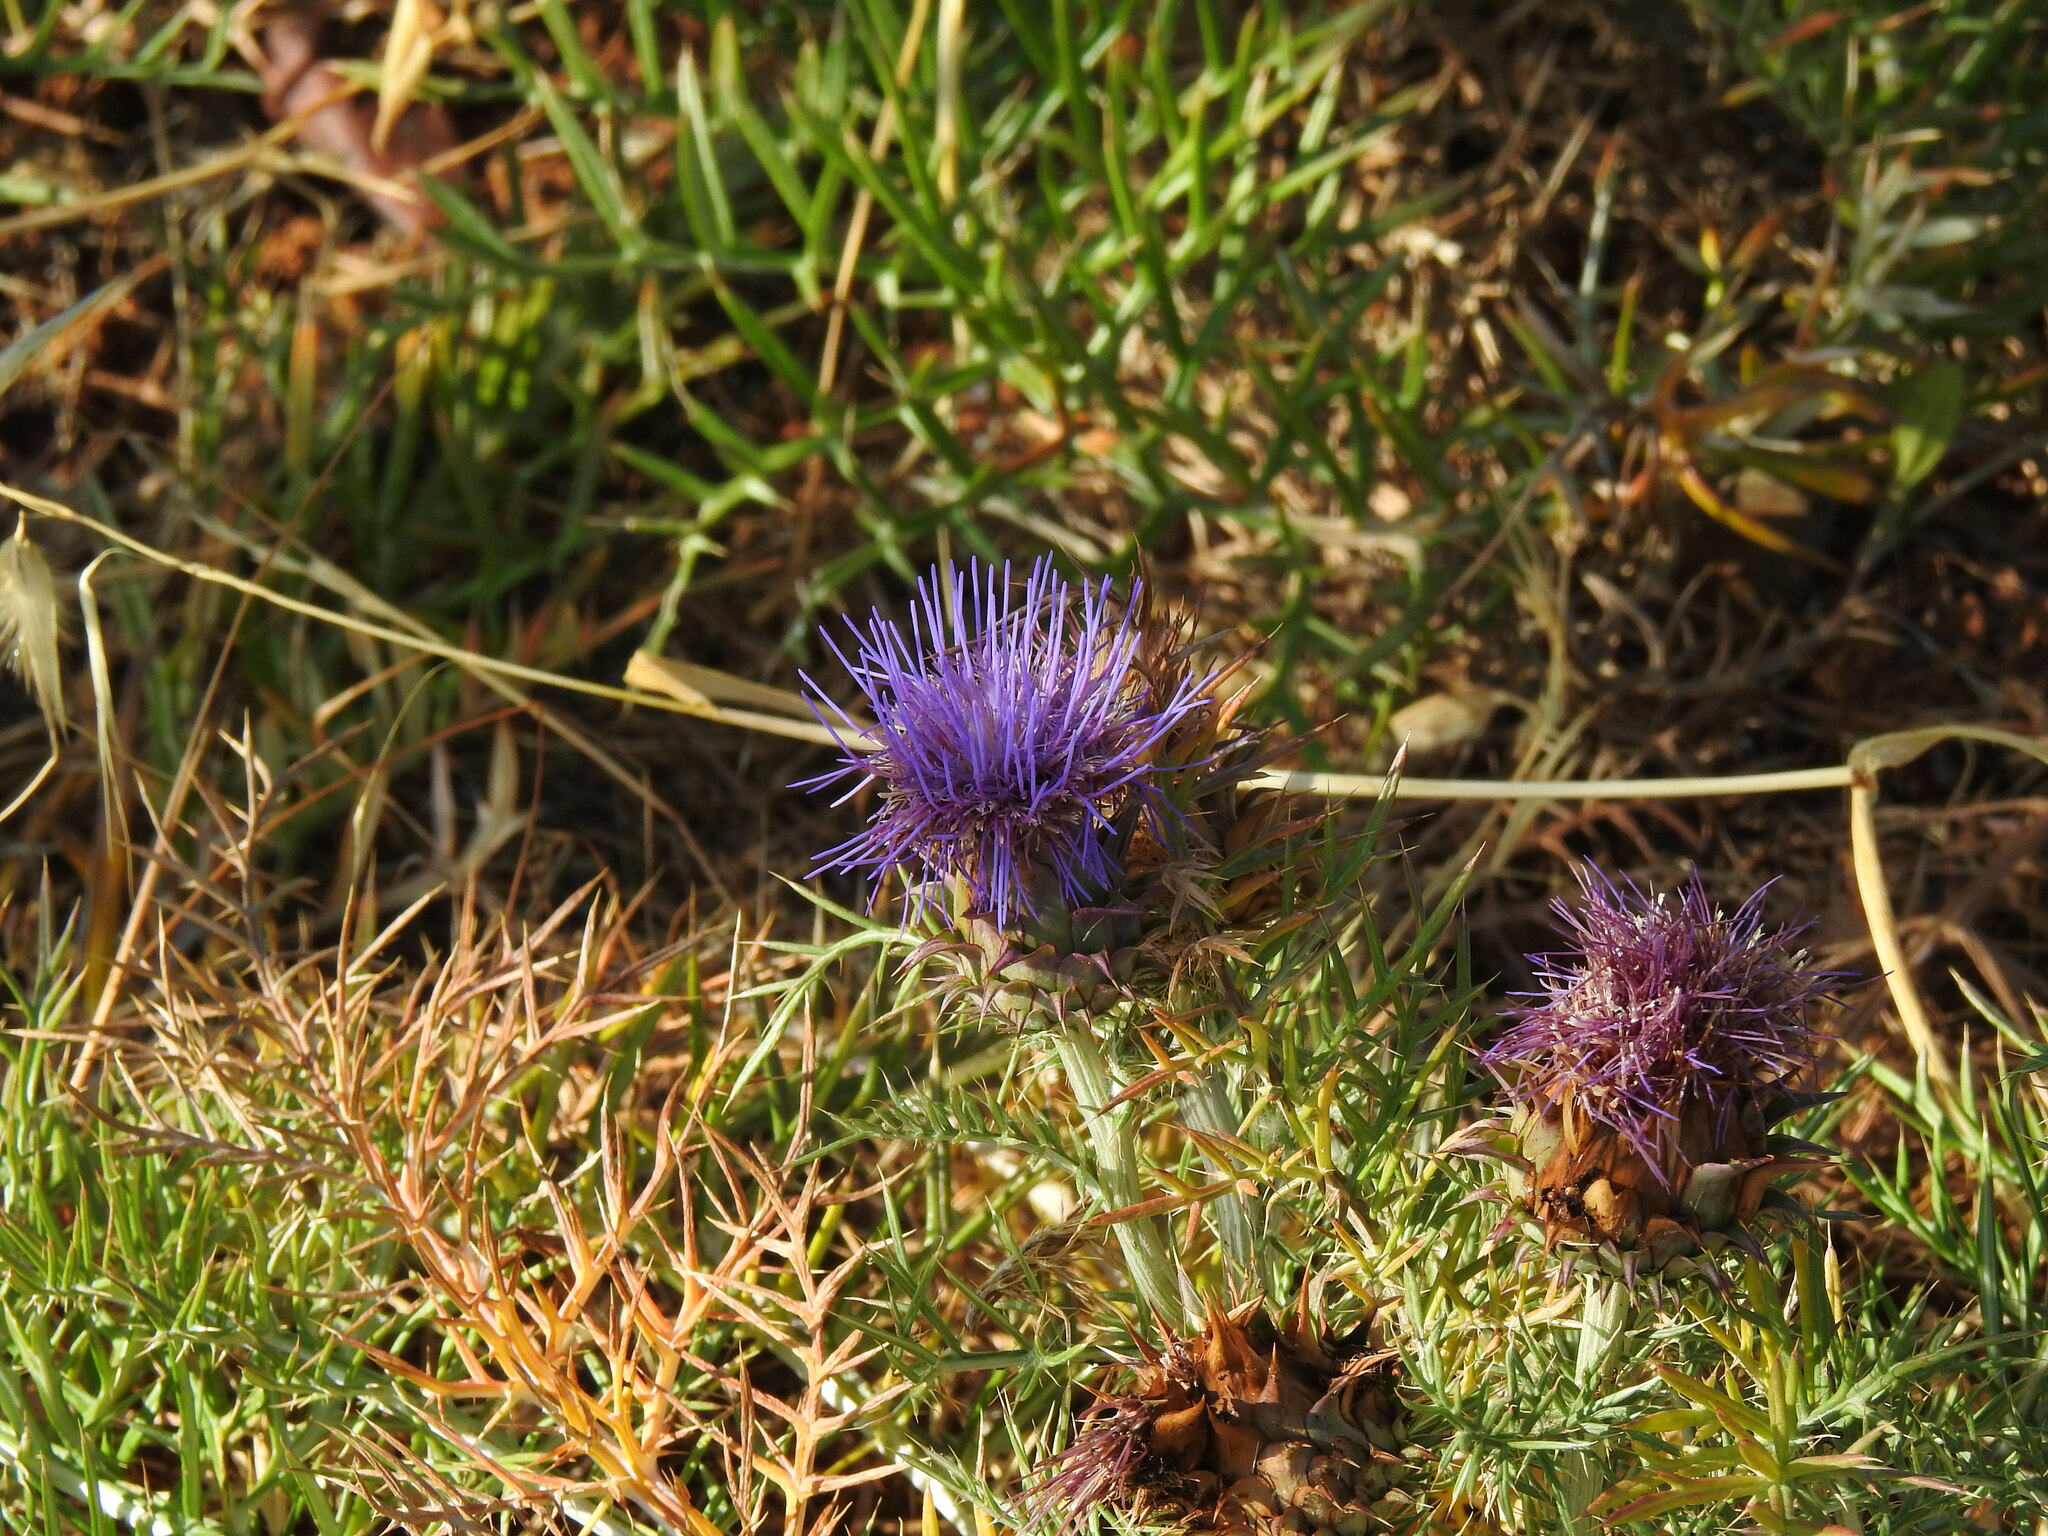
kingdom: Plantae
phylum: Tracheophyta
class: Magnoliopsida
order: Asterales
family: Asteraceae
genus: Cynara
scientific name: Cynara humilis
